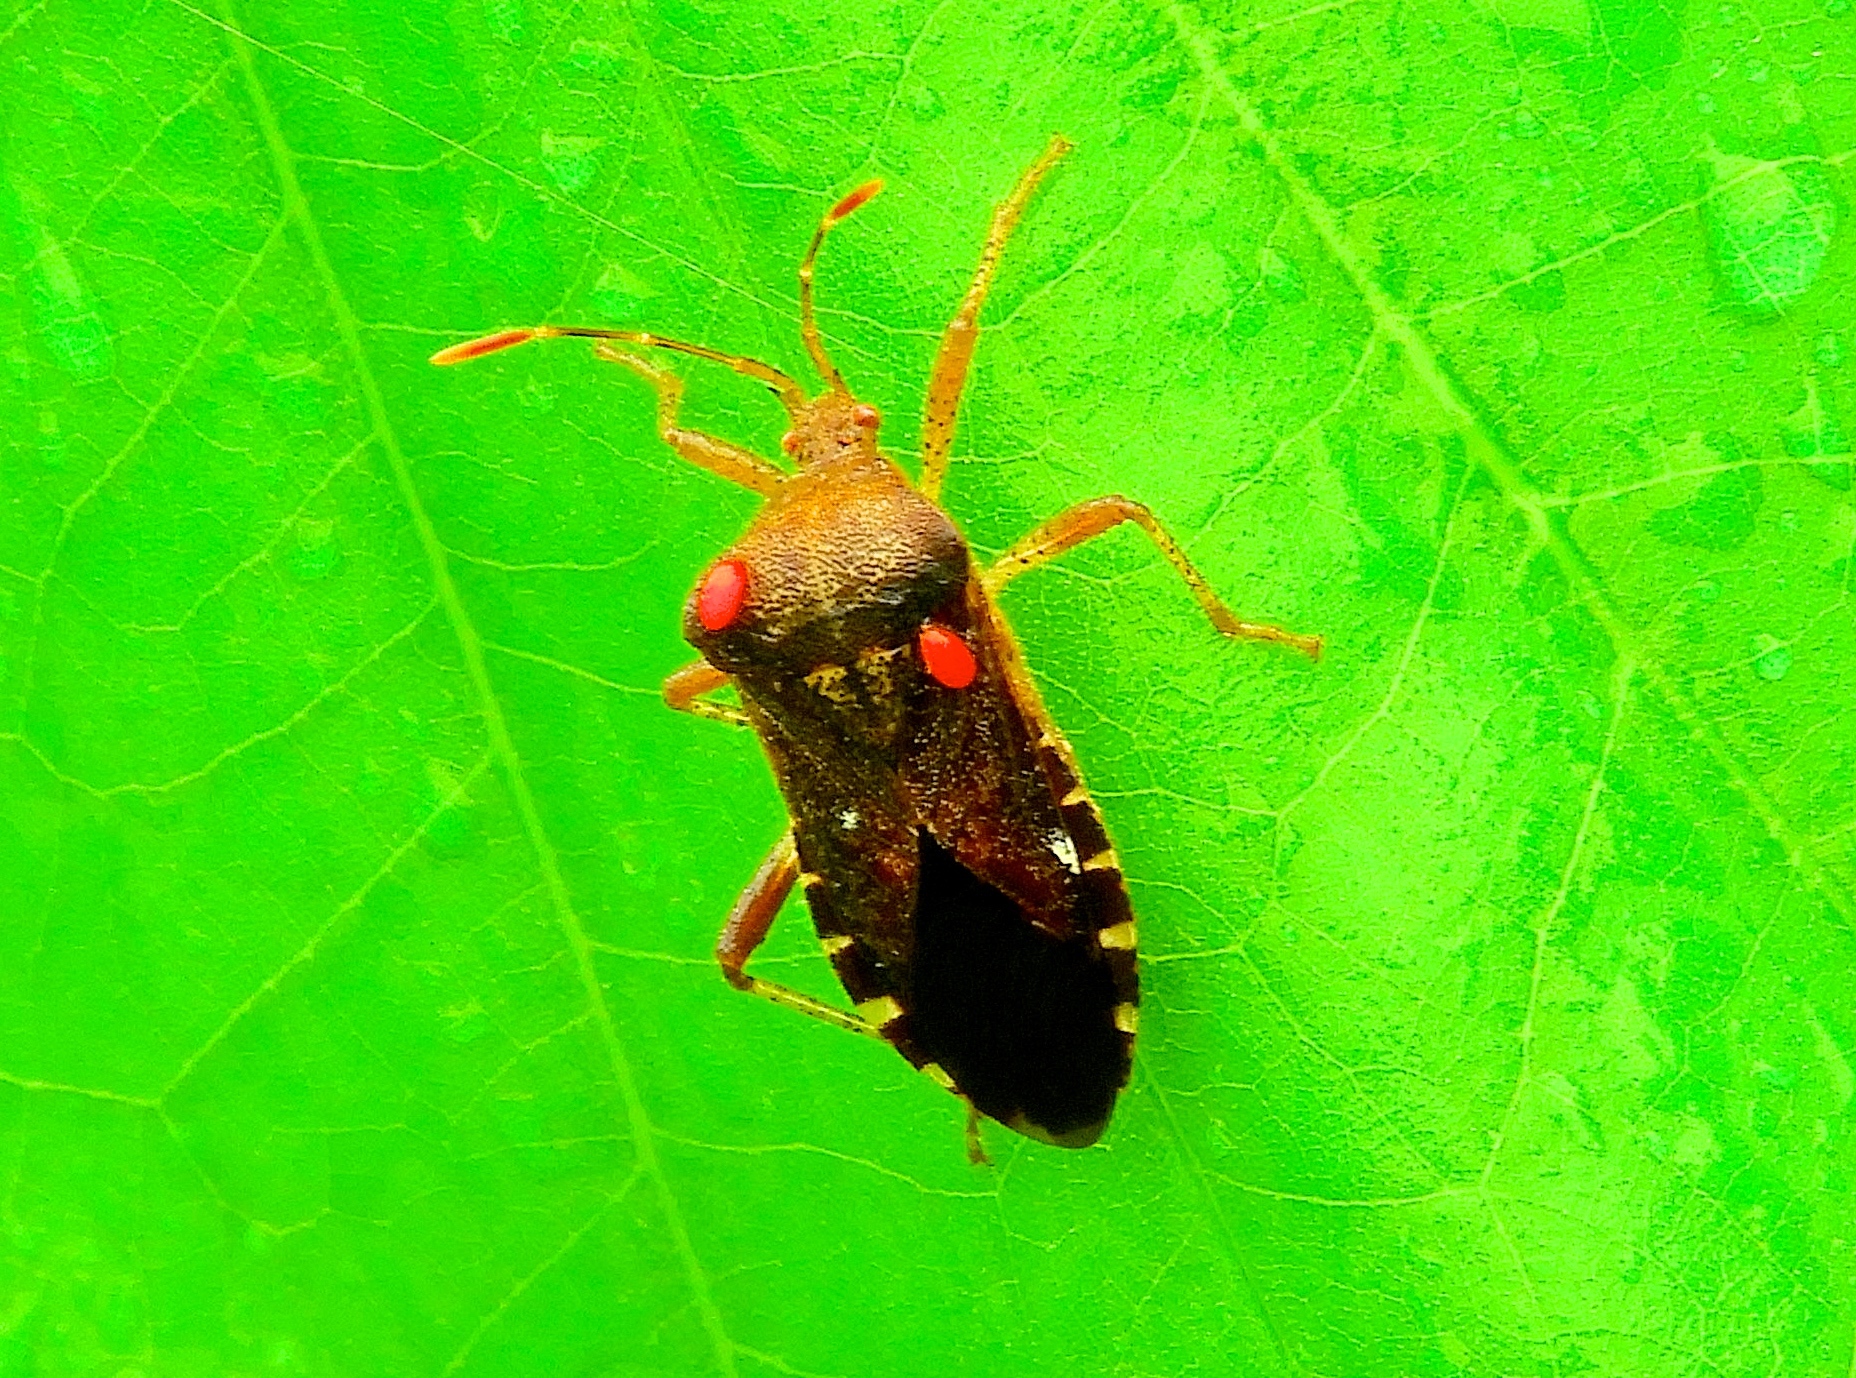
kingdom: Animalia
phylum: Arthropoda
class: Insecta
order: Hemiptera
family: Coreidae
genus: Anasa
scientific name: Anasa
